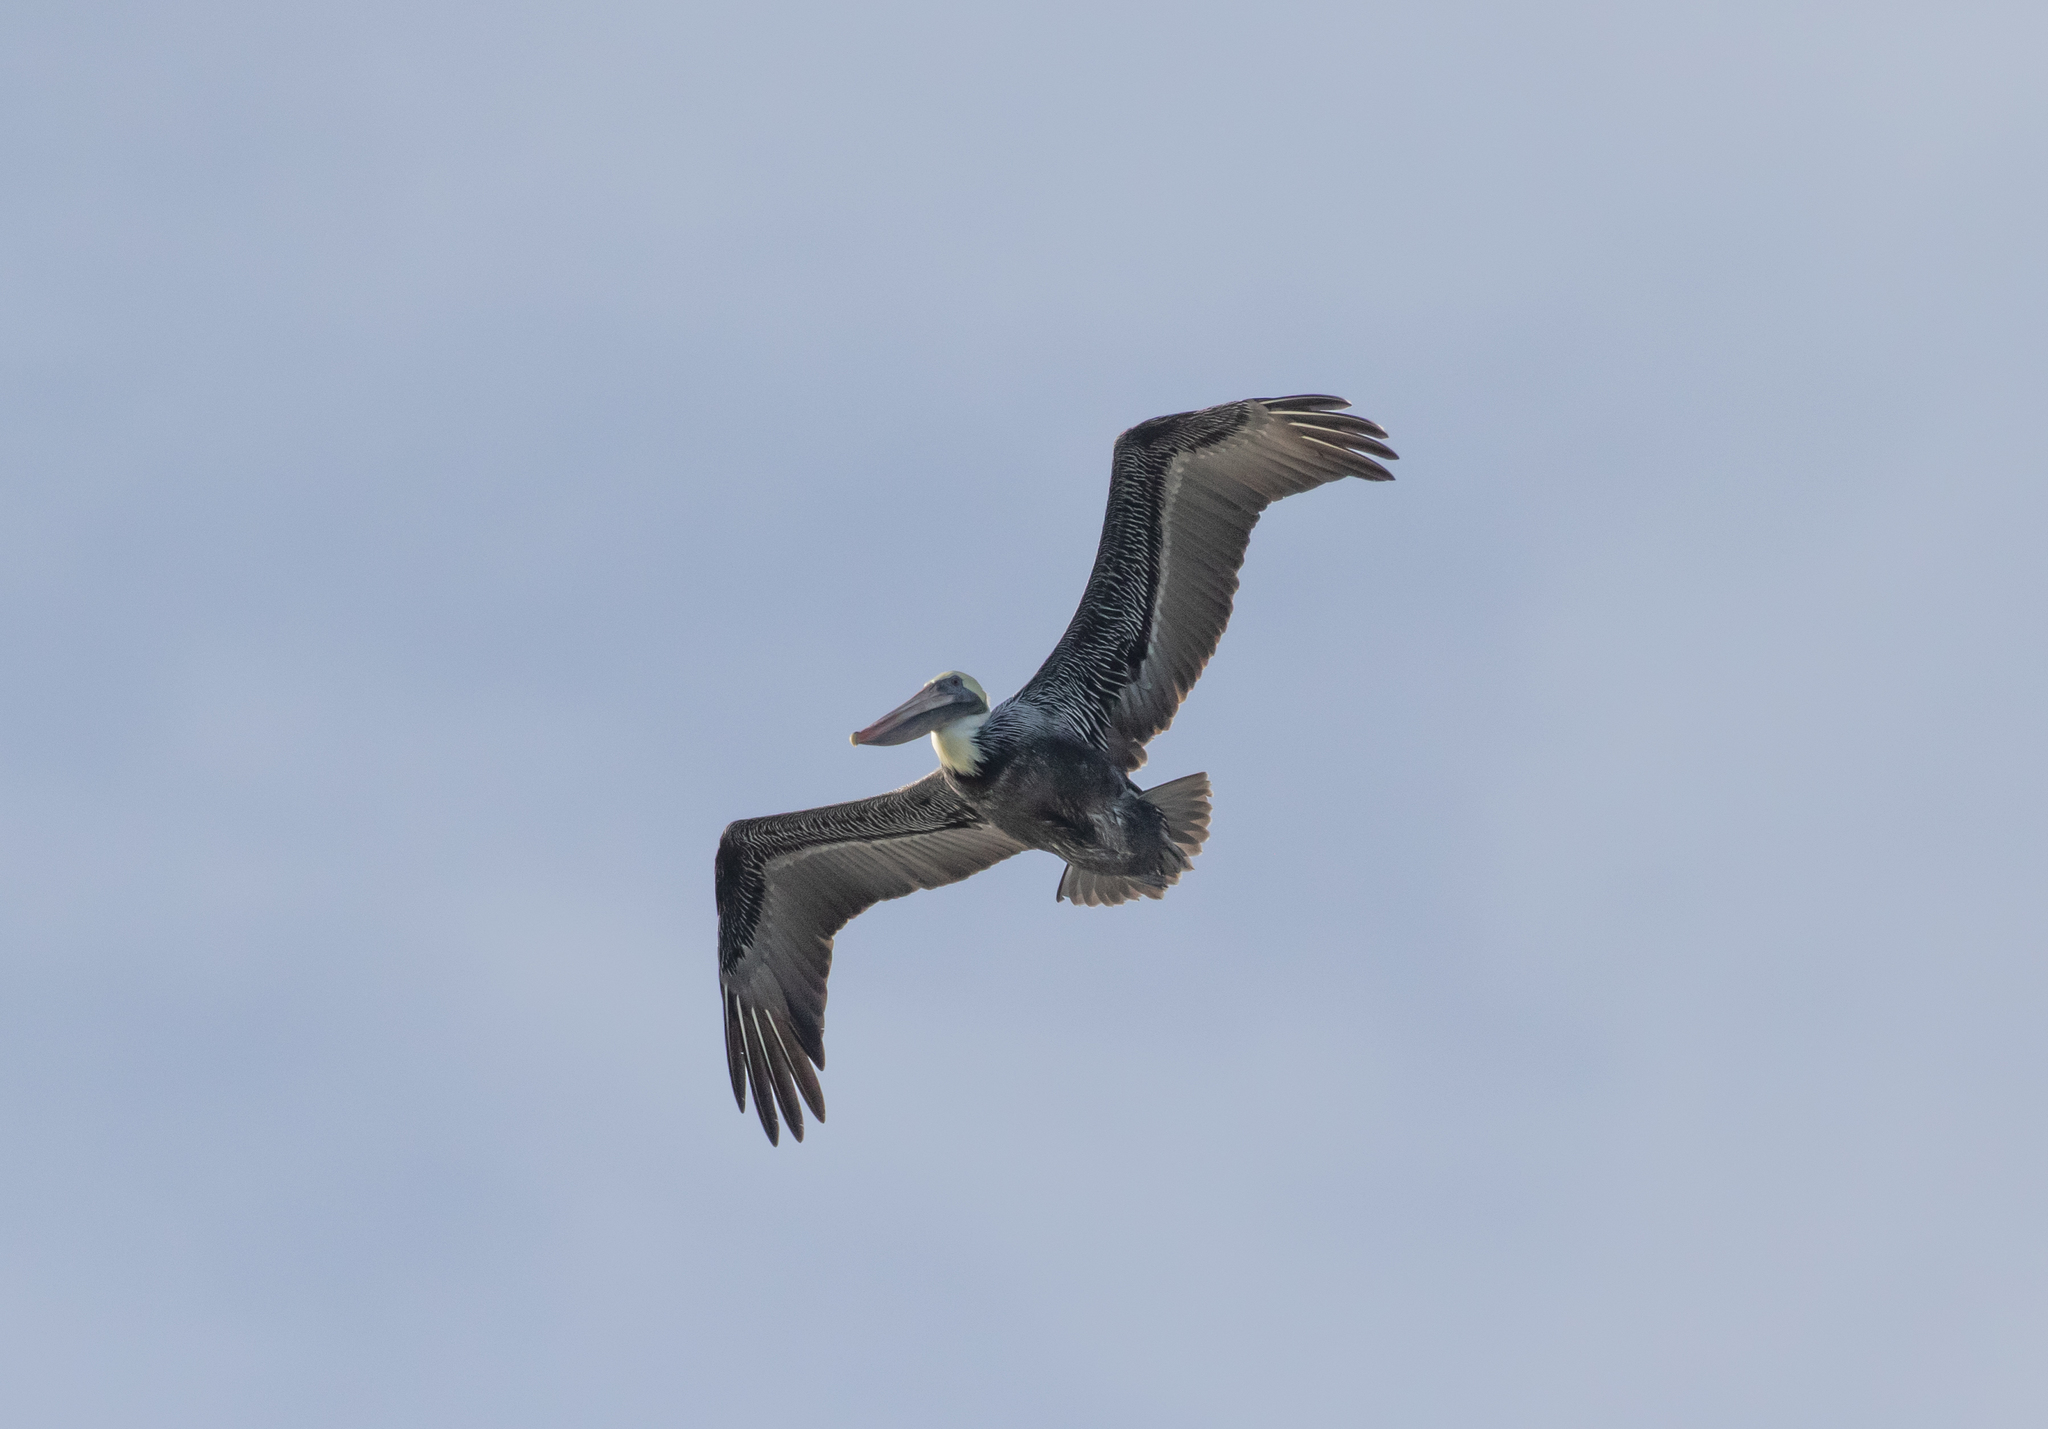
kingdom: Animalia
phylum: Chordata
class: Aves
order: Pelecaniformes
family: Pelecanidae
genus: Pelecanus
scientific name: Pelecanus occidentalis
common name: Brown pelican
